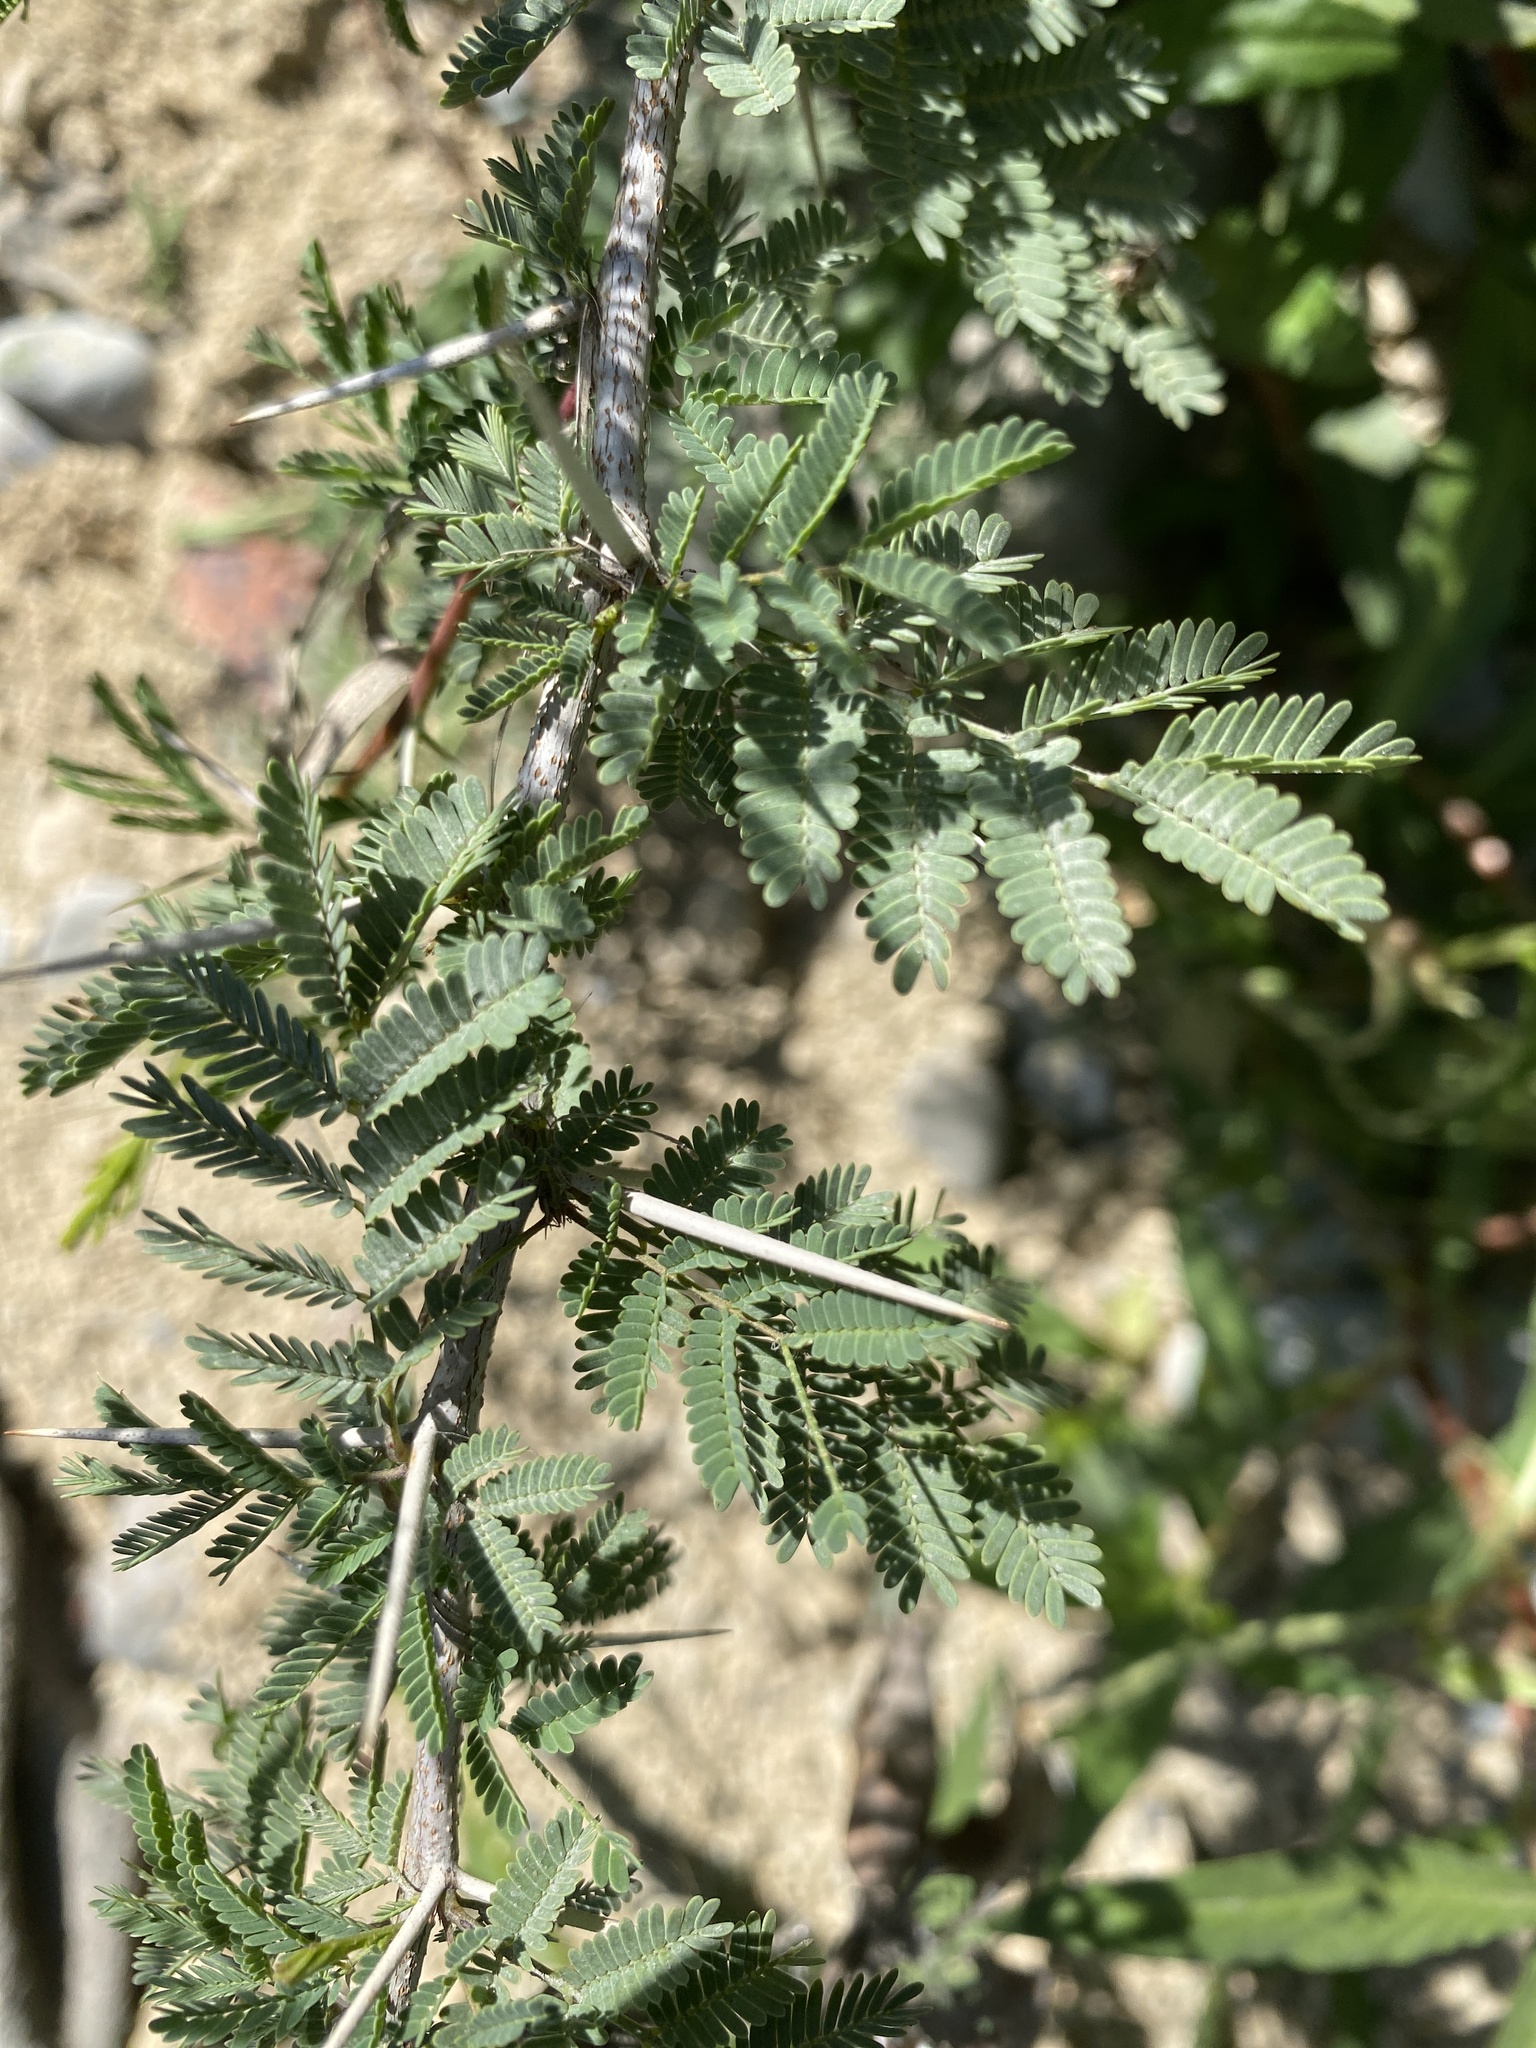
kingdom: Plantae
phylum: Tracheophyta
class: Magnoliopsida
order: Fabales
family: Fabaceae
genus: Vachellia
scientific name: Vachellia farnesiana
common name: Sweet acacia
